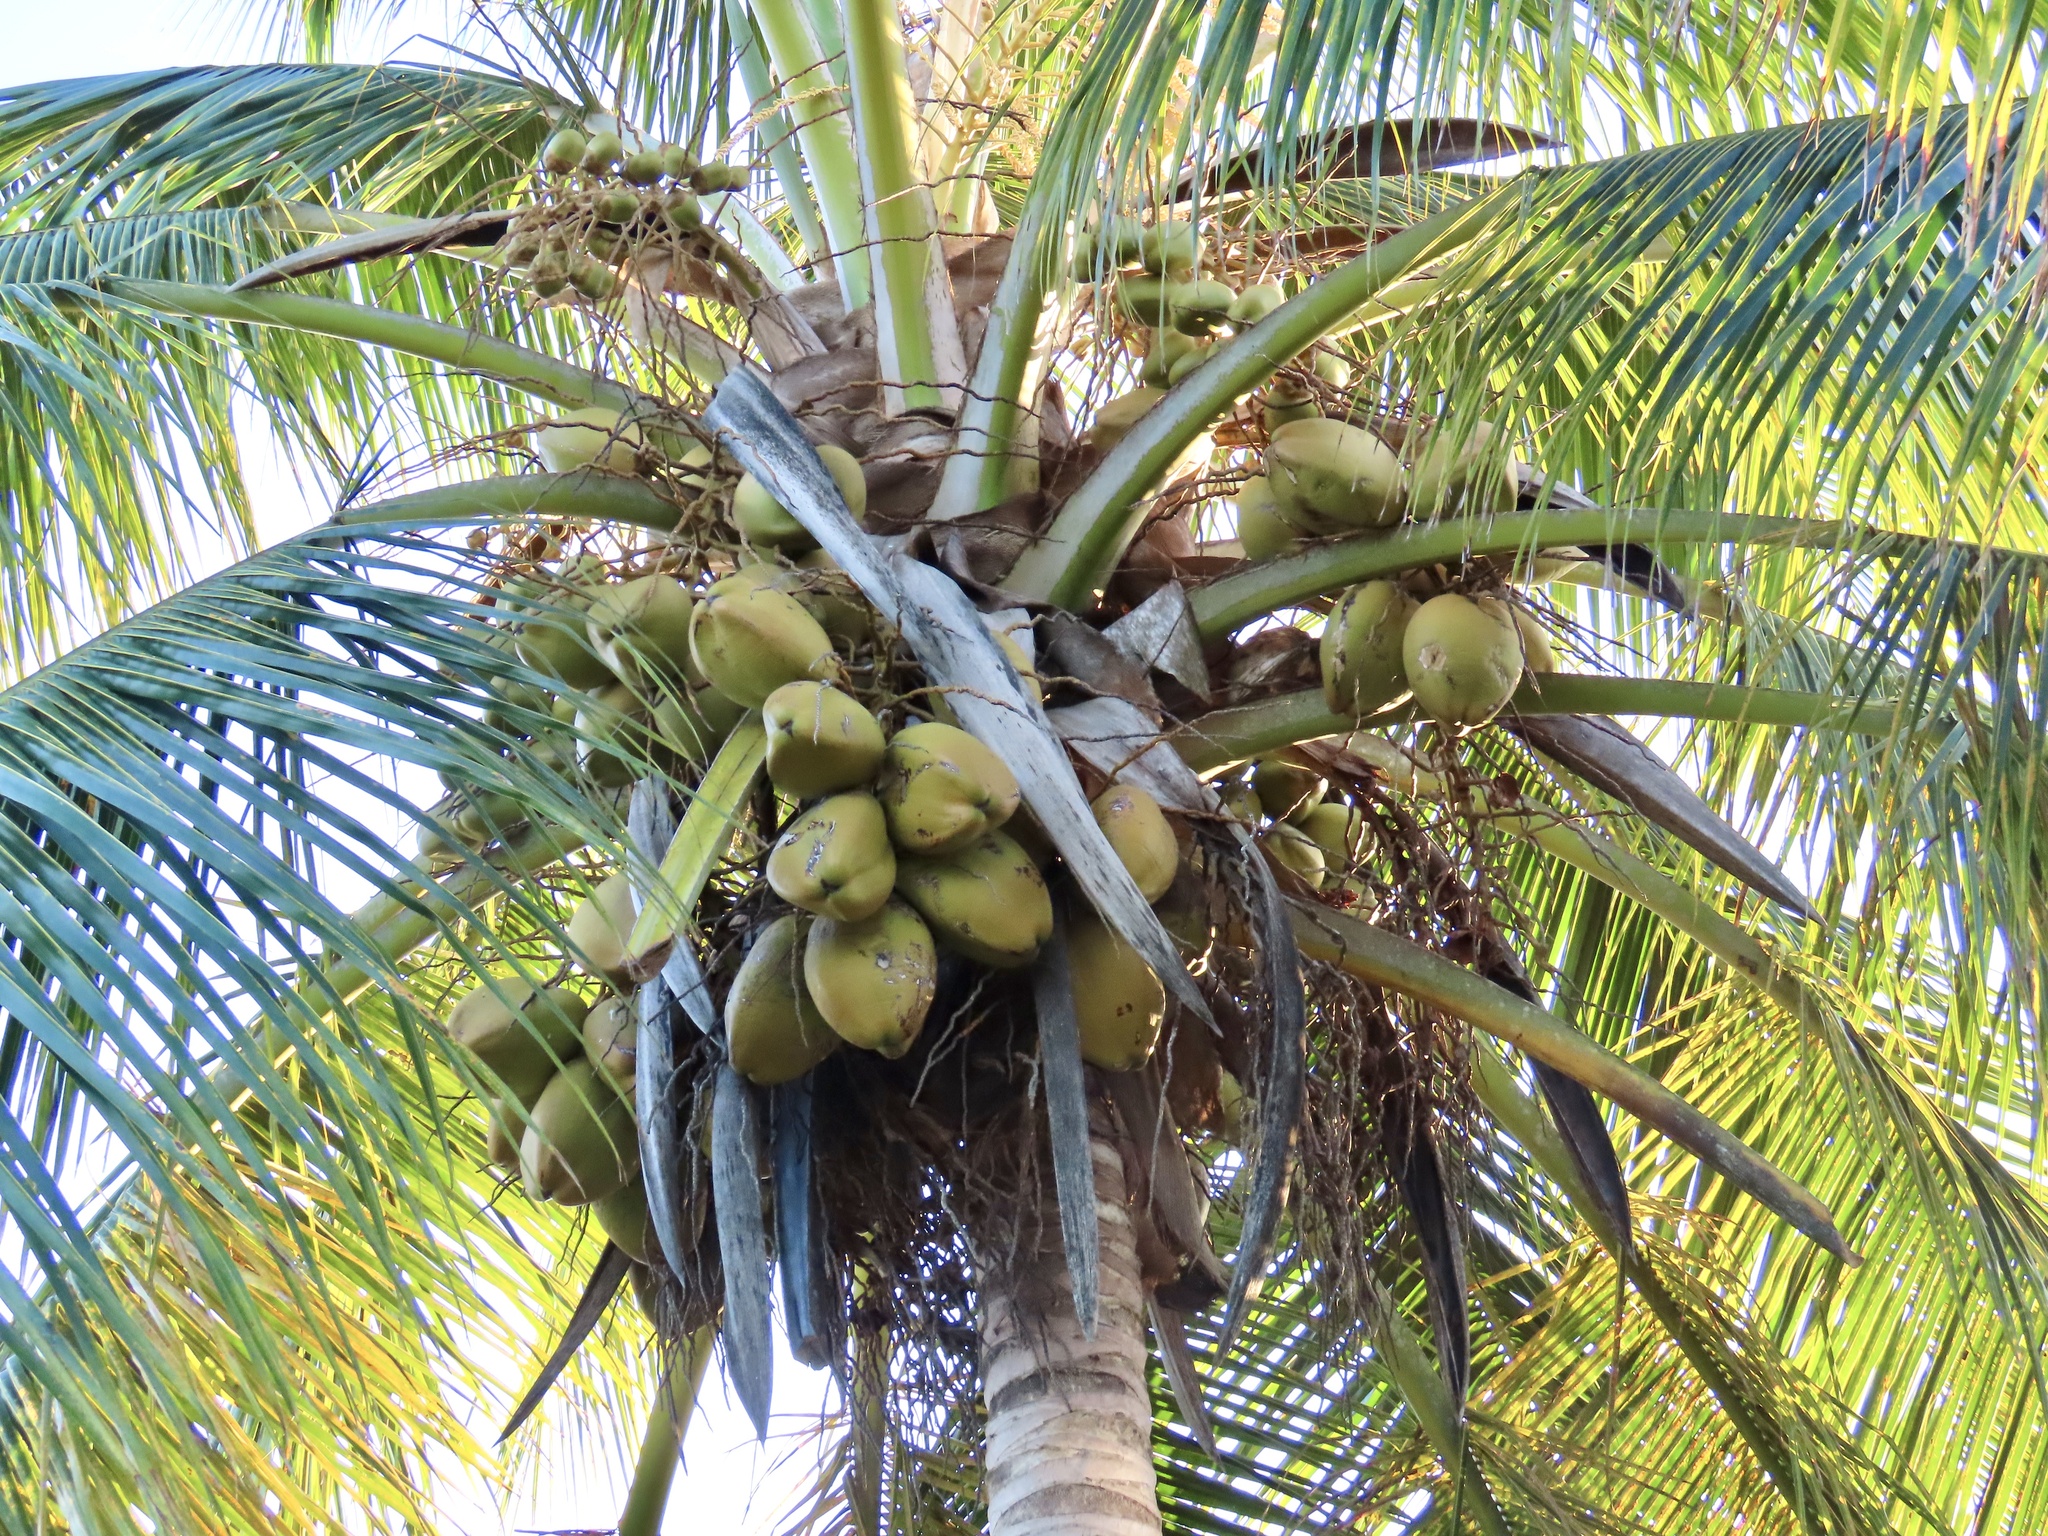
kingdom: Plantae
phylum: Tracheophyta
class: Liliopsida
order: Arecales
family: Arecaceae
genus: Cocos
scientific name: Cocos nucifera
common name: Coconut palm
